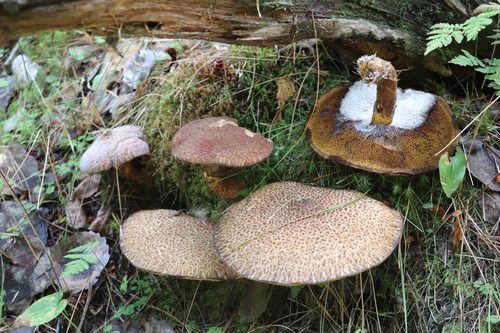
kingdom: Fungi
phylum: Basidiomycota
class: Agaricomycetes
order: Boletales
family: Suillaceae
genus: Suillus
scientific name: Suillus spraguei
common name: Painted suillus
